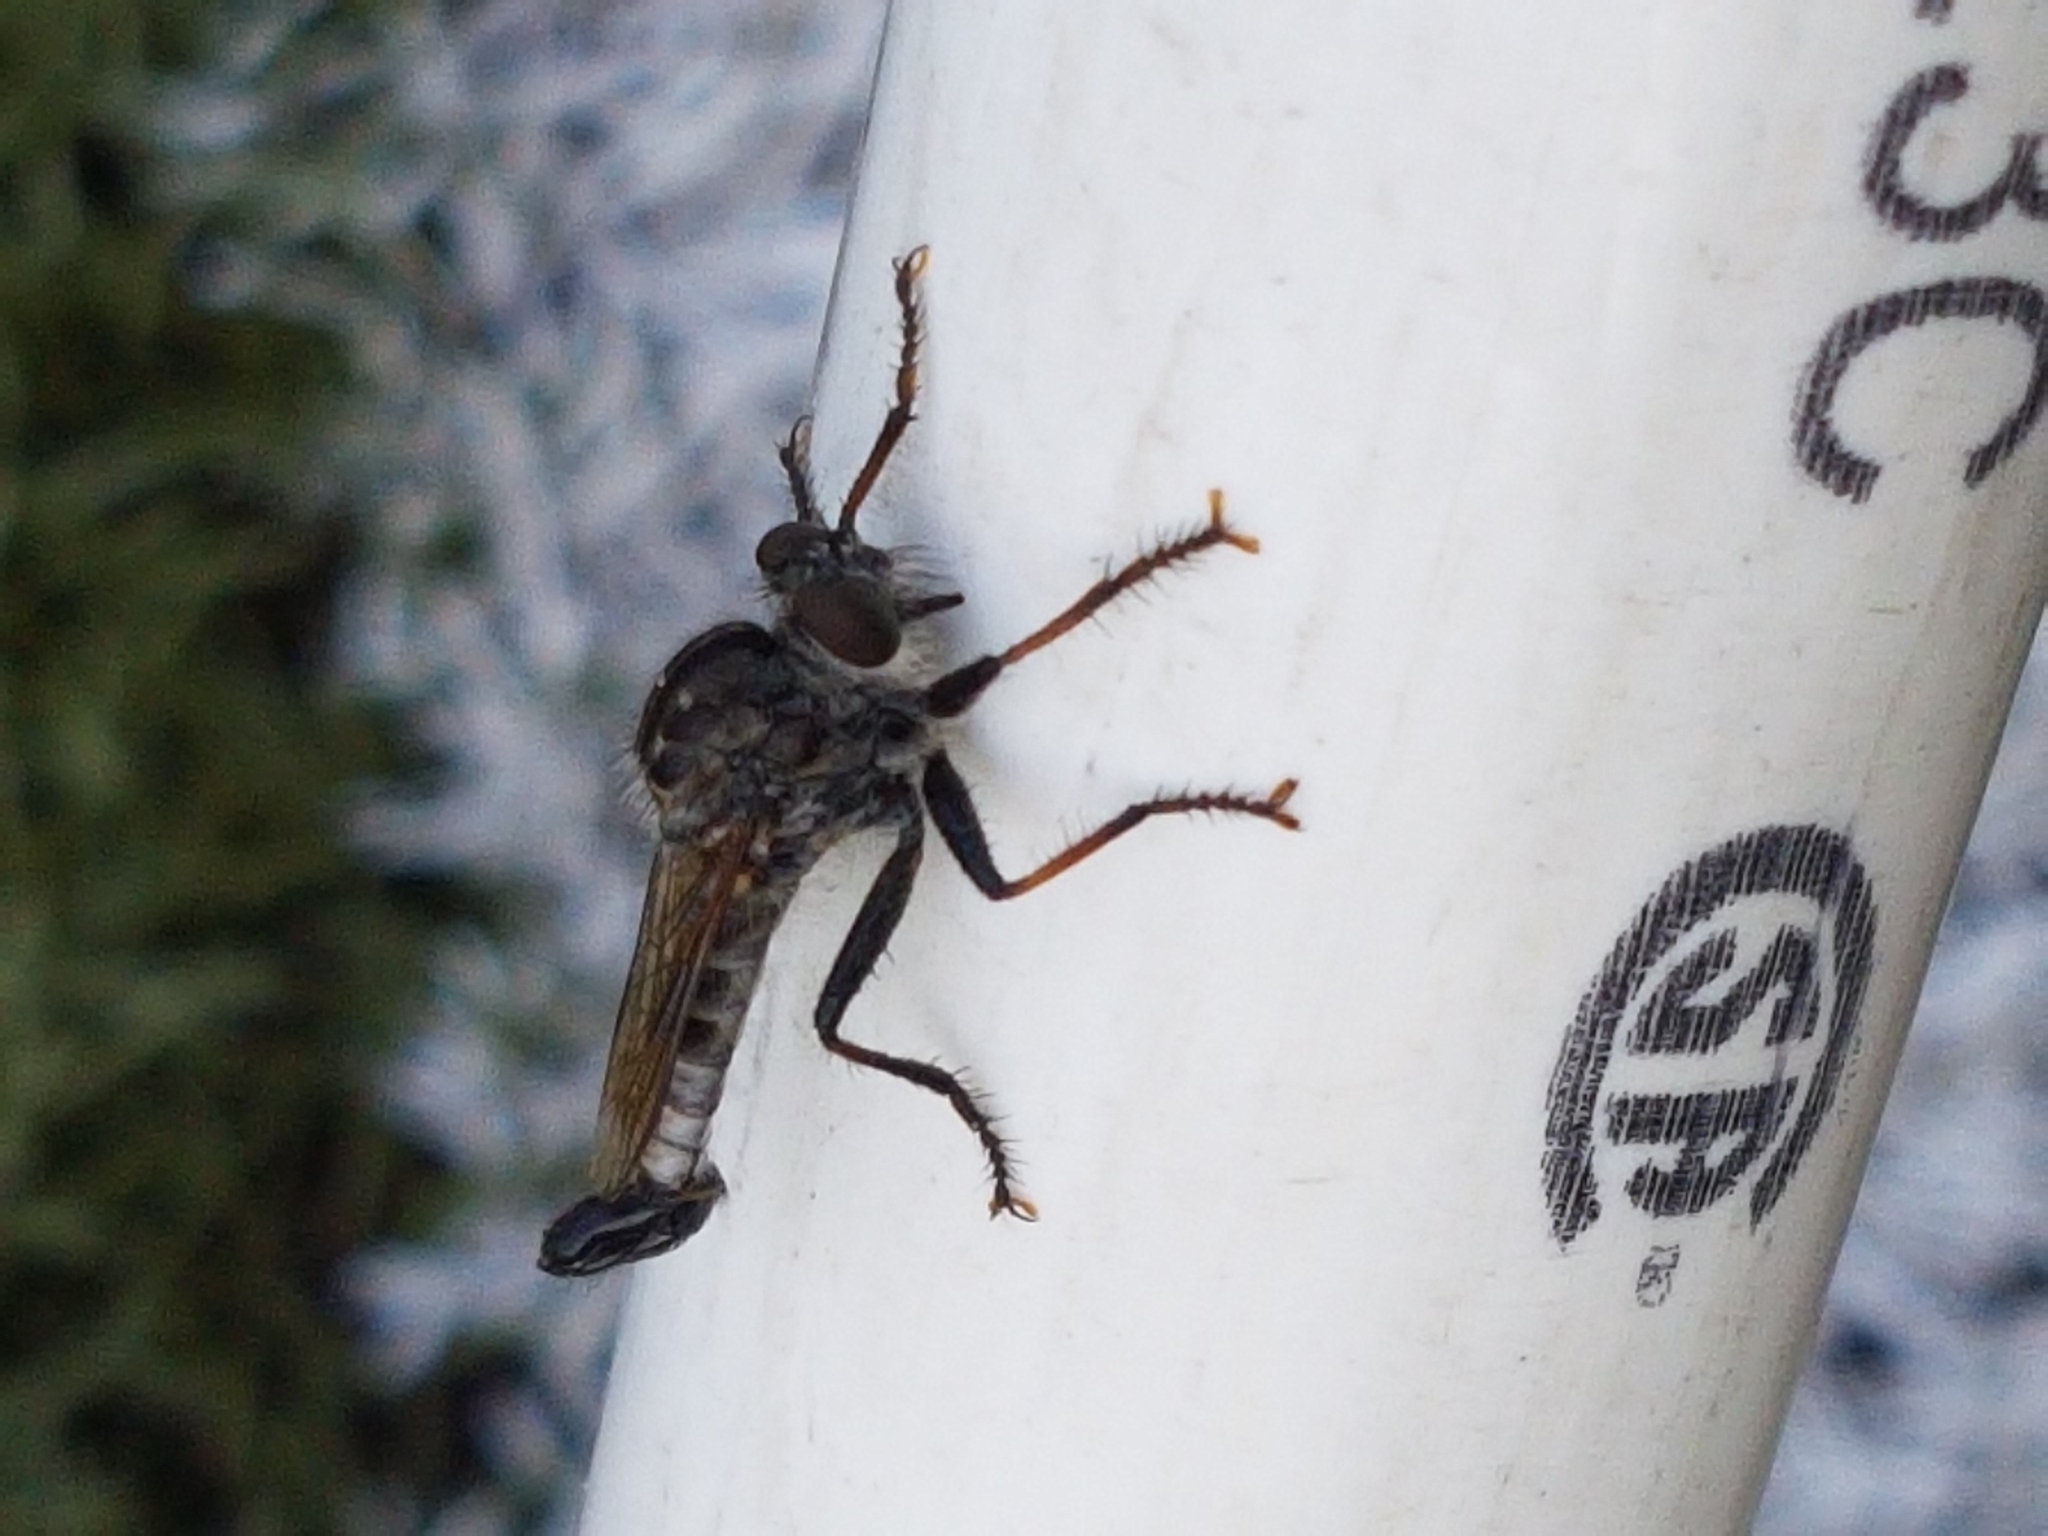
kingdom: Animalia
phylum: Arthropoda
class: Insecta
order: Diptera
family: Asilidae
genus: Efferia
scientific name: Efferia aestuans
